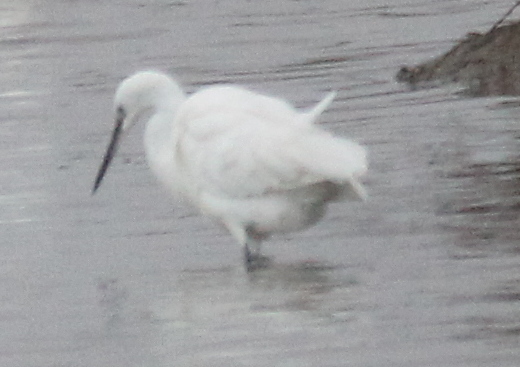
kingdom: Animalia
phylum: Chordata
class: Aves
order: Pelecaniformes
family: Ardeidae
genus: Egretta
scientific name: Egretta garzetta
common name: Little egret
